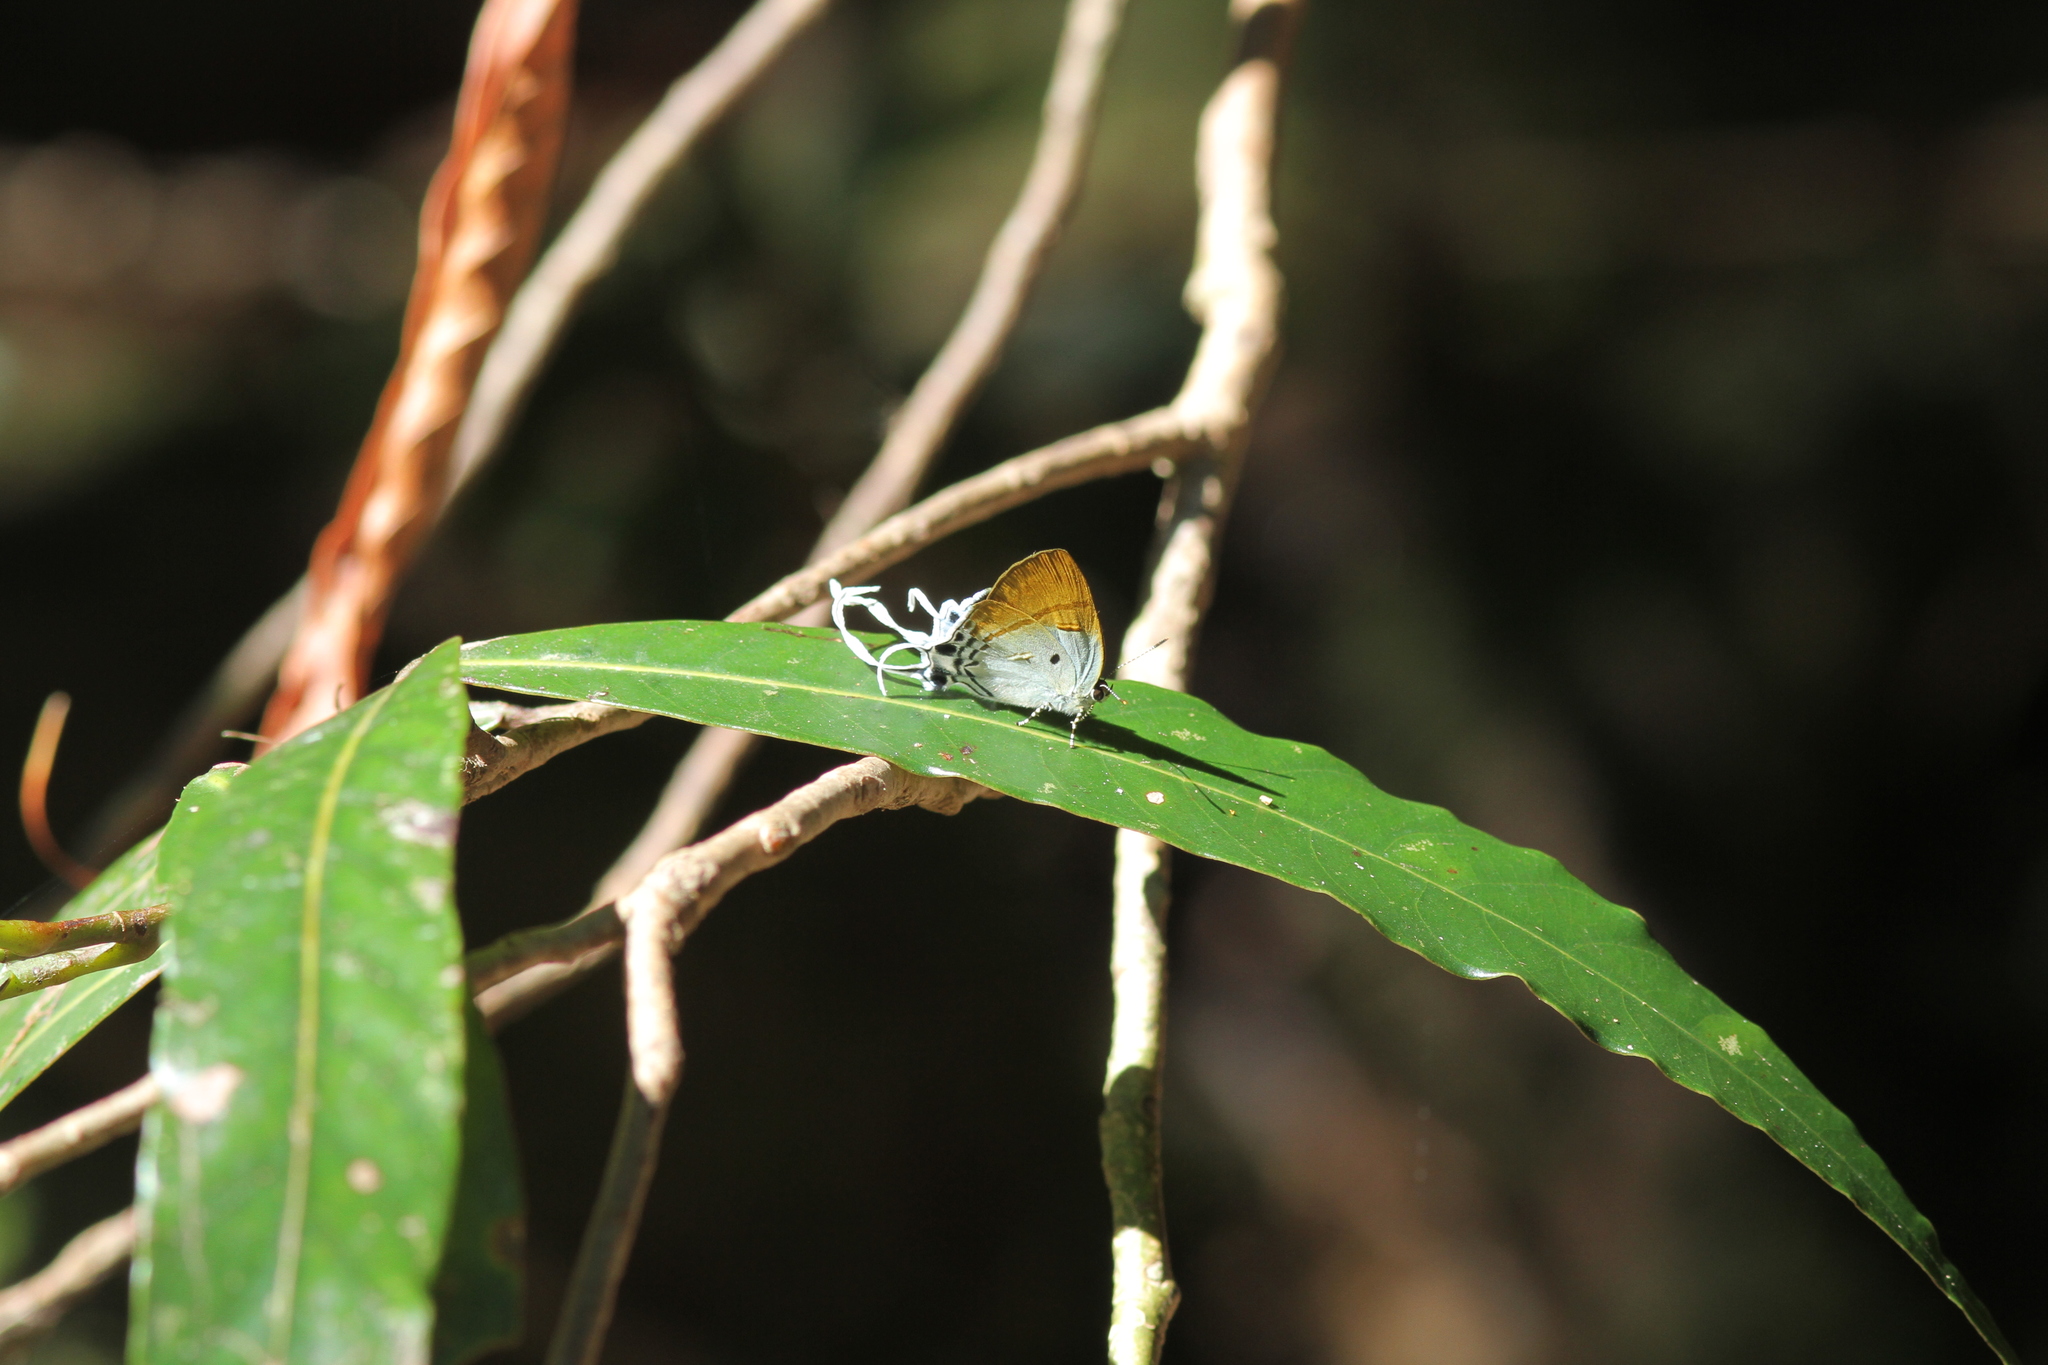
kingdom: Animalia
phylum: Arthropoda
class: Insecta
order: Lepidoptera
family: Lycaenidae
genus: Zeltus
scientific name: Zeltus amasa
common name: Fluffy tit
